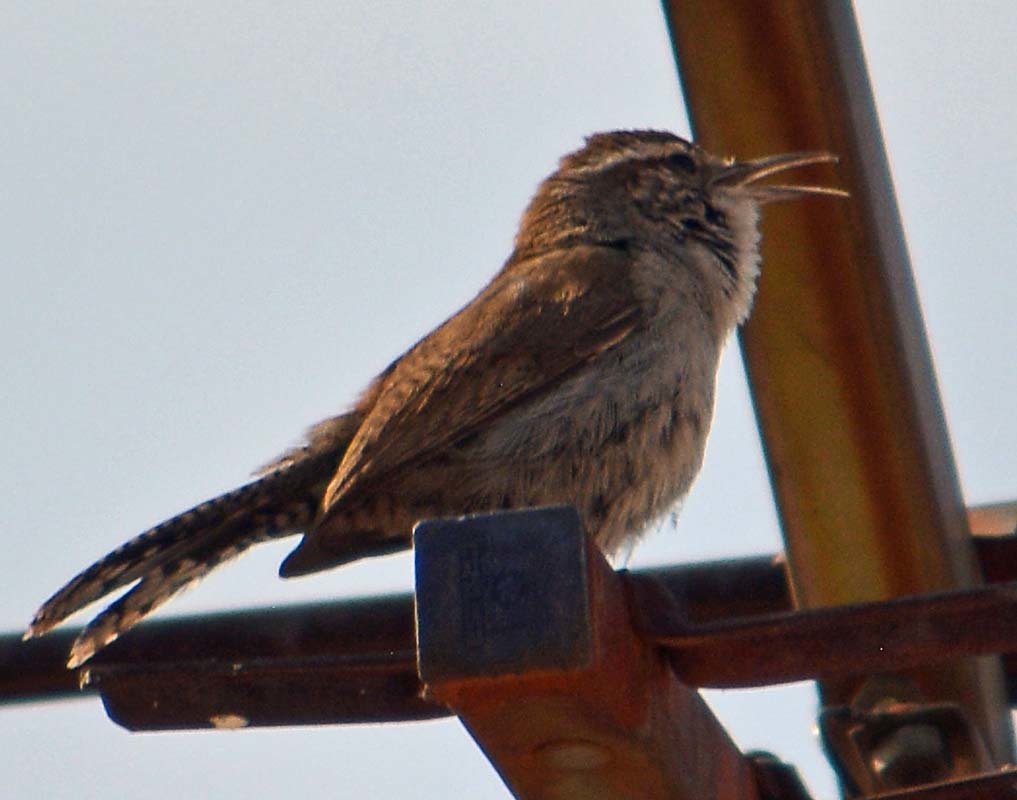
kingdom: Animalia
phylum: Chordata
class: Aves
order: Passeriformes
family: Troglodytidae
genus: Thryomanes
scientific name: Thryomanes bewickii
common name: Bewick's wren
